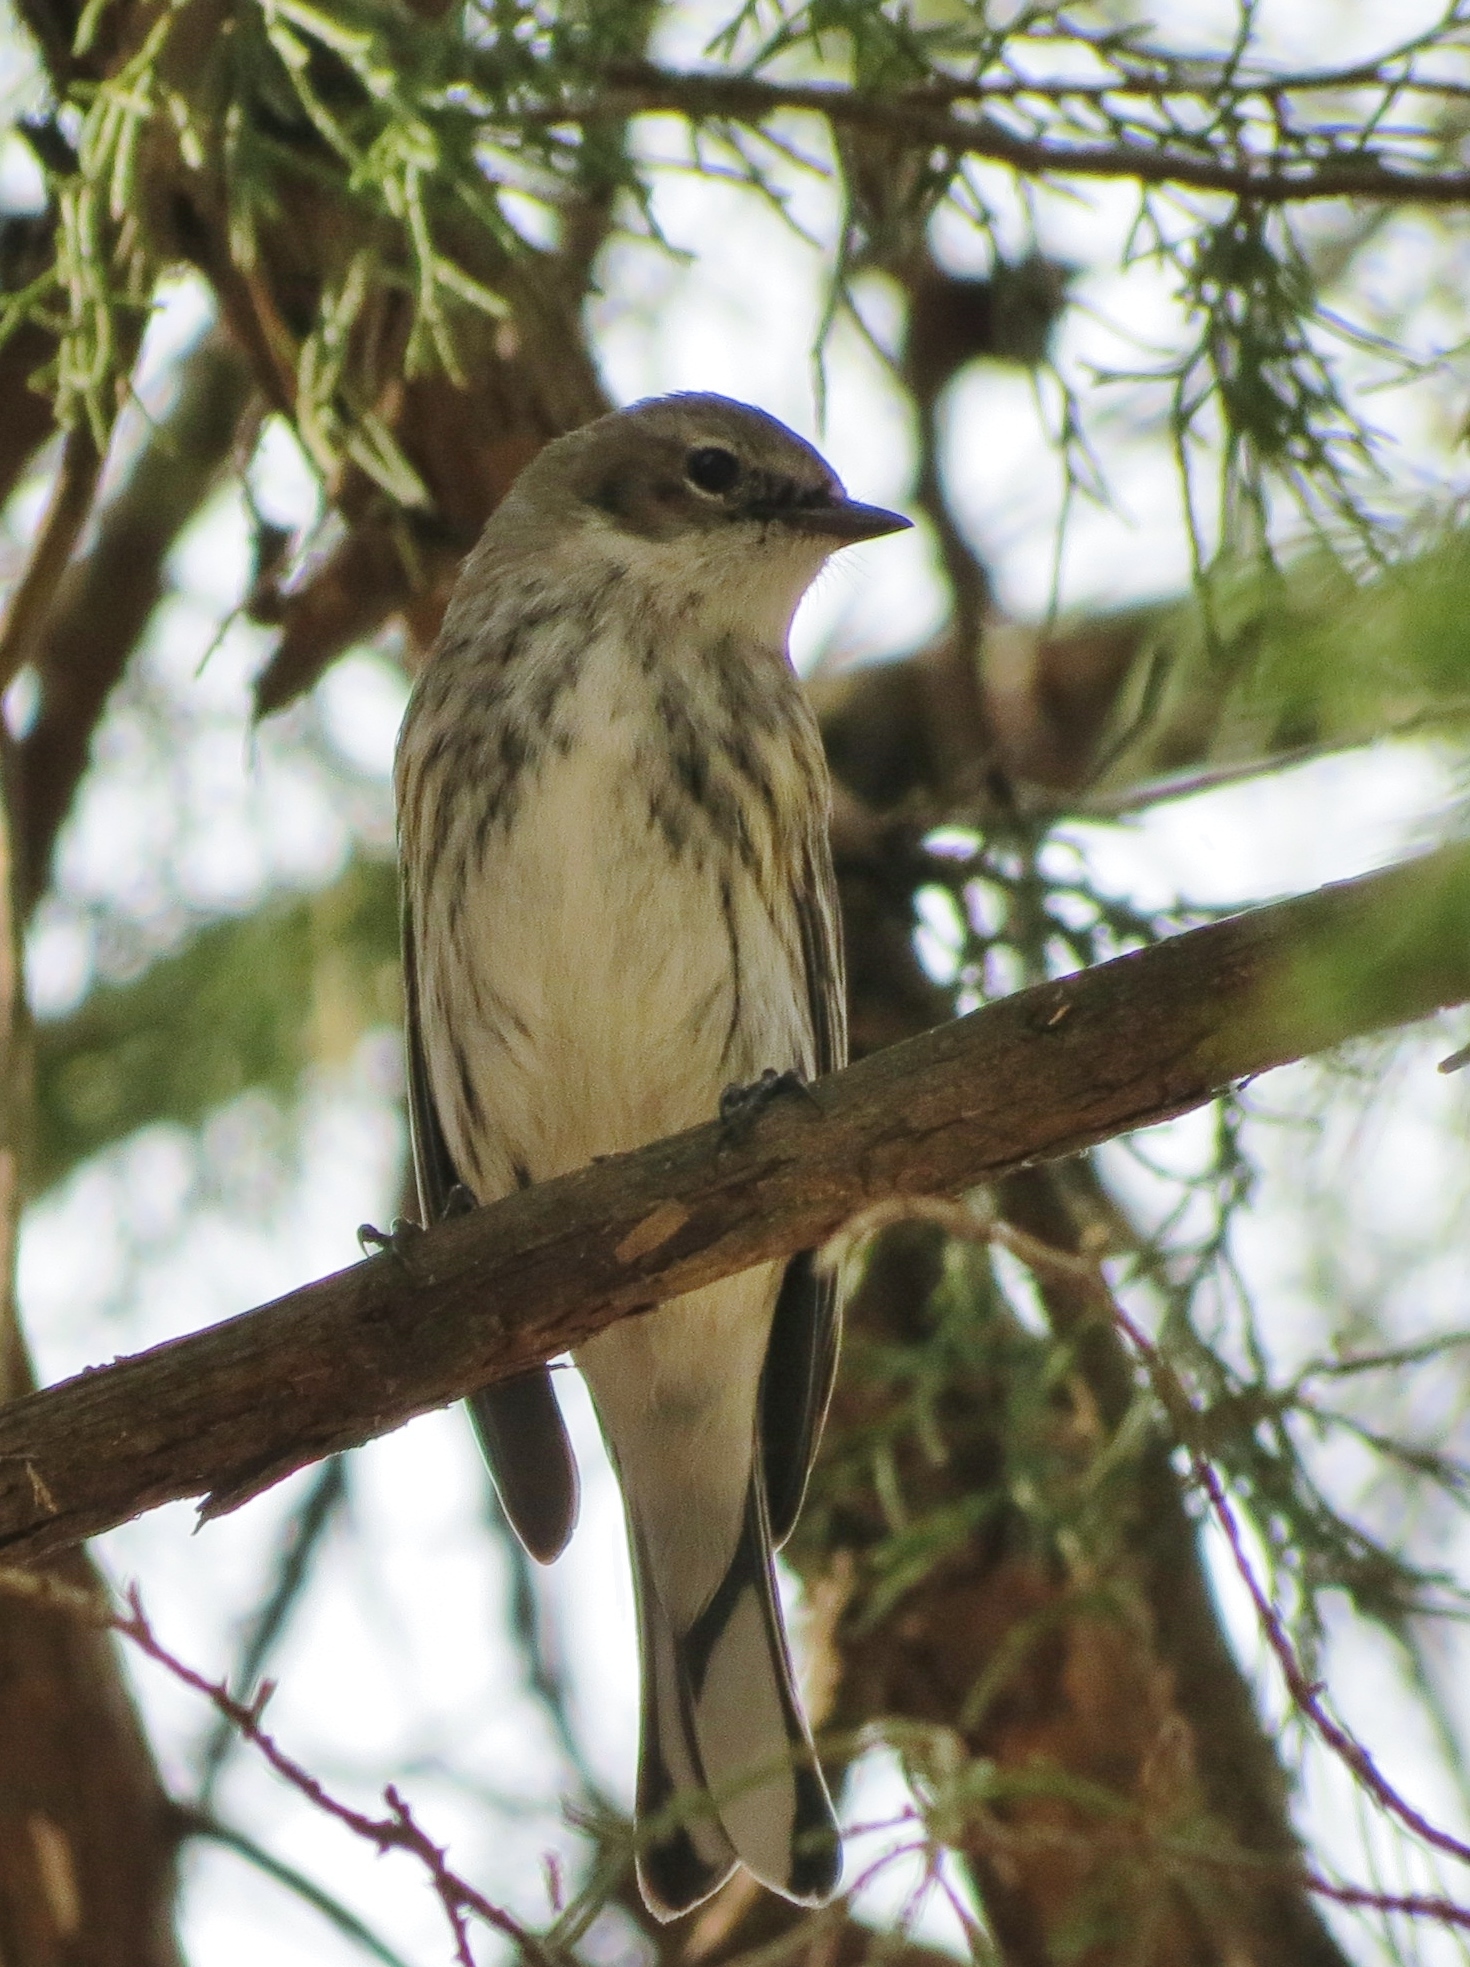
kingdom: Animalia
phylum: Chordata
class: Aves
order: Passeriformes
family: Parulidae
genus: Setophaga
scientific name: Setophaga coronata
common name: Myrtle warbler
